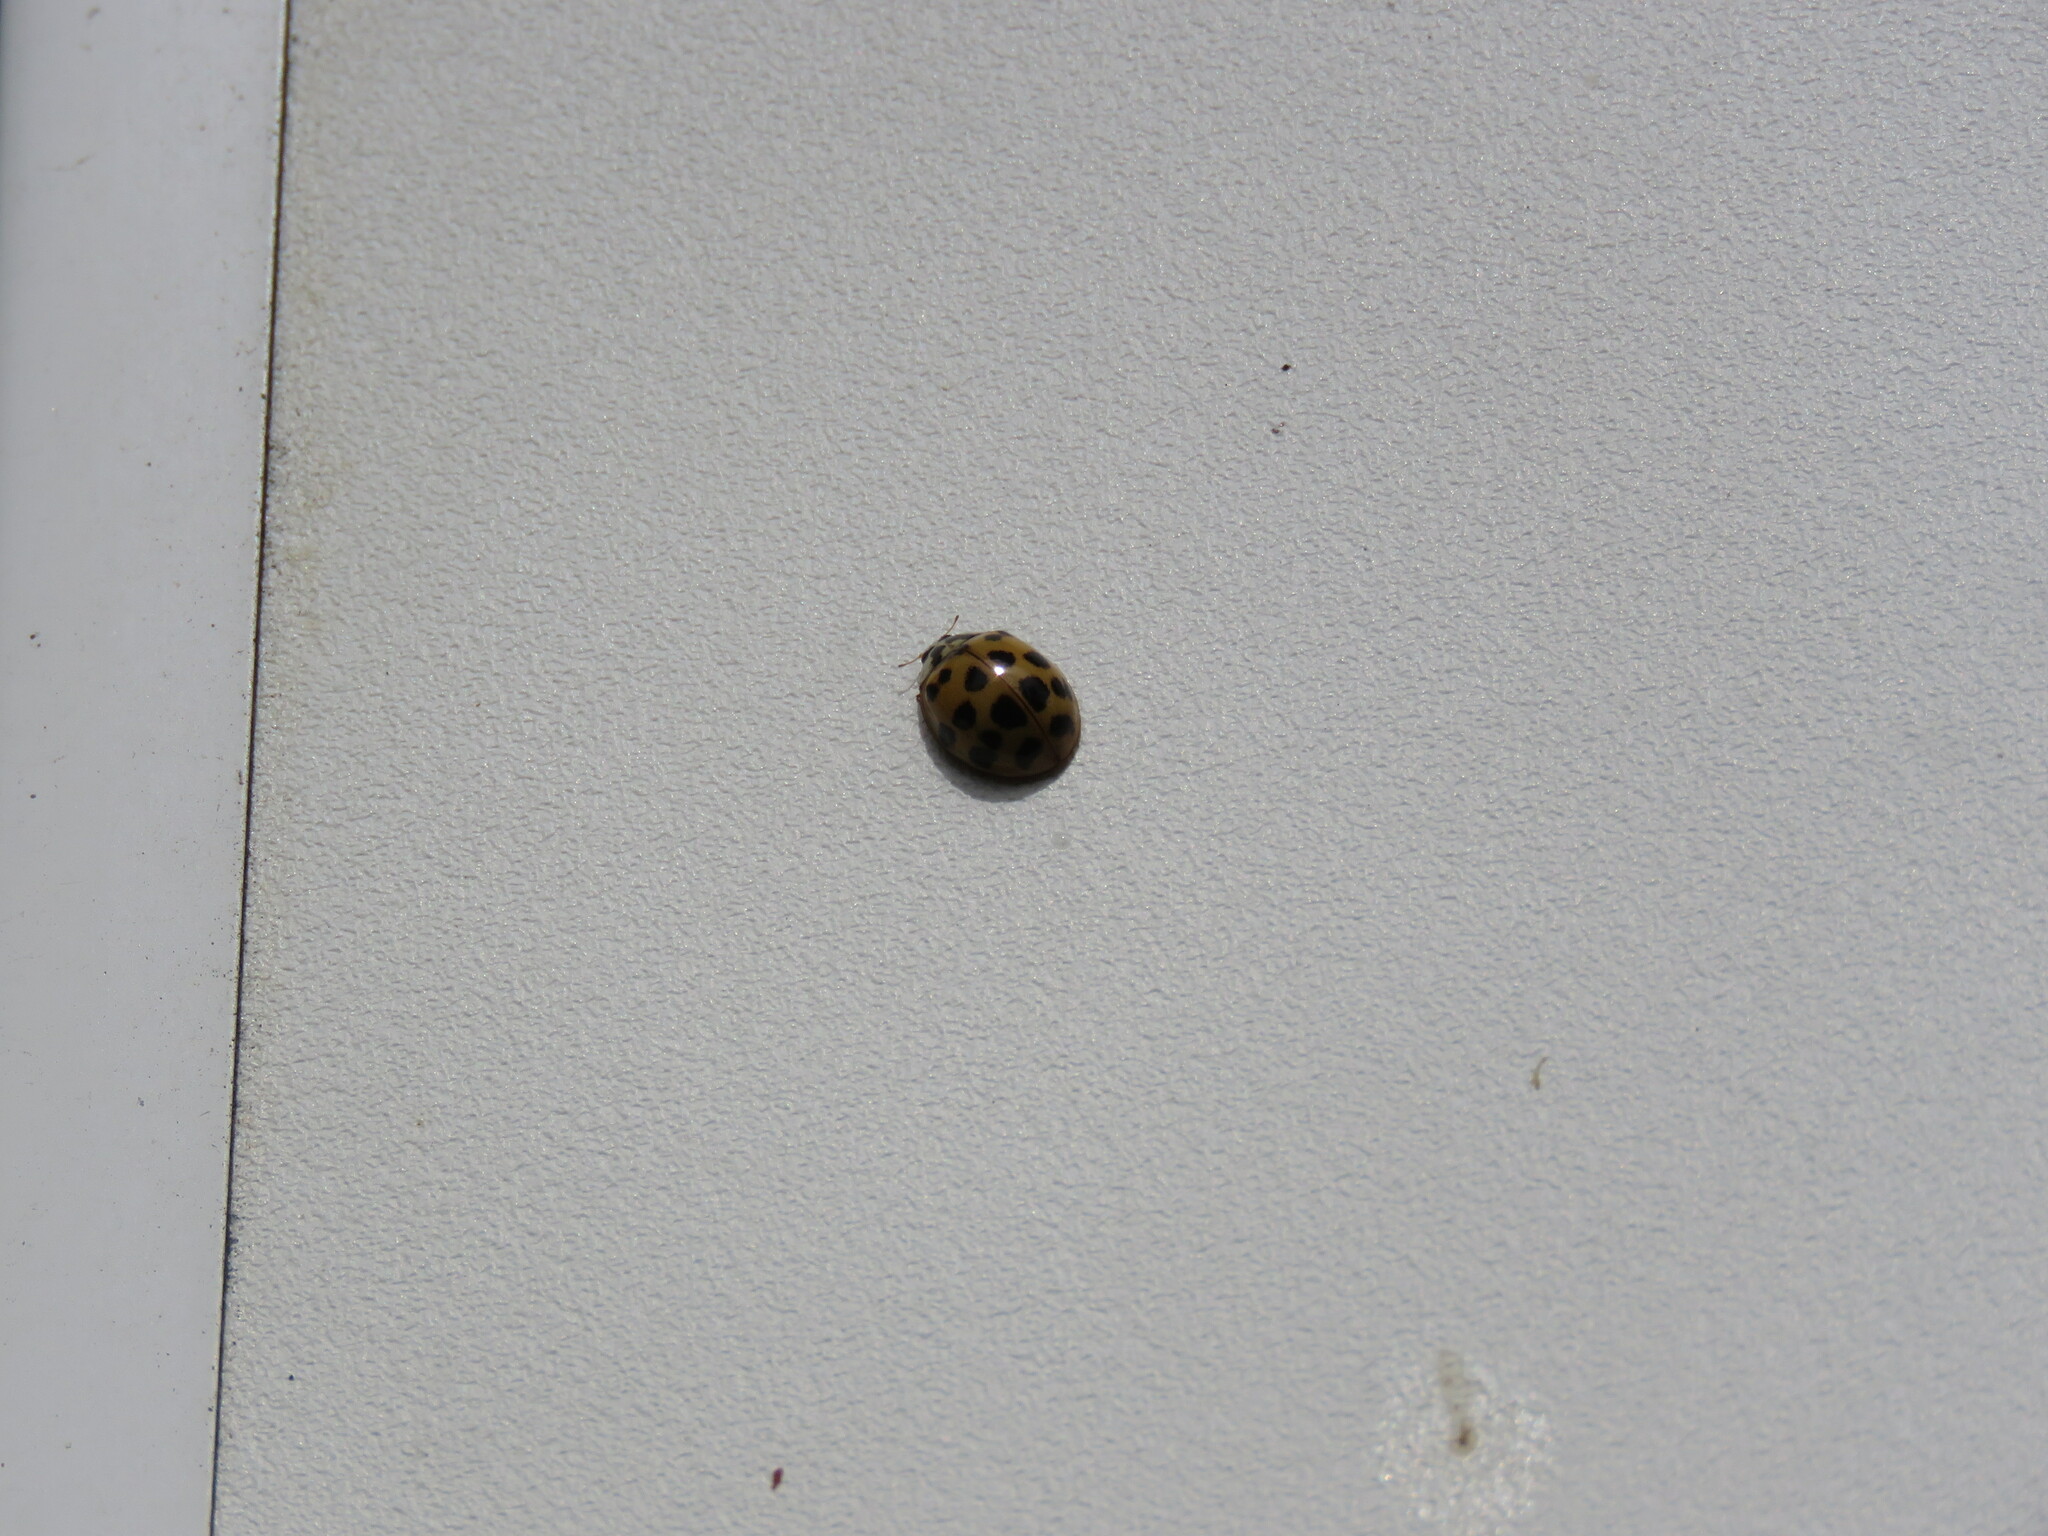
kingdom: Animalia
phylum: Arthropoda
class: Insecta
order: Coleoptera
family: Coccinellidae
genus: Harmonia
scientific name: Harmonia axyridis
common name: Harlequin ladybird
